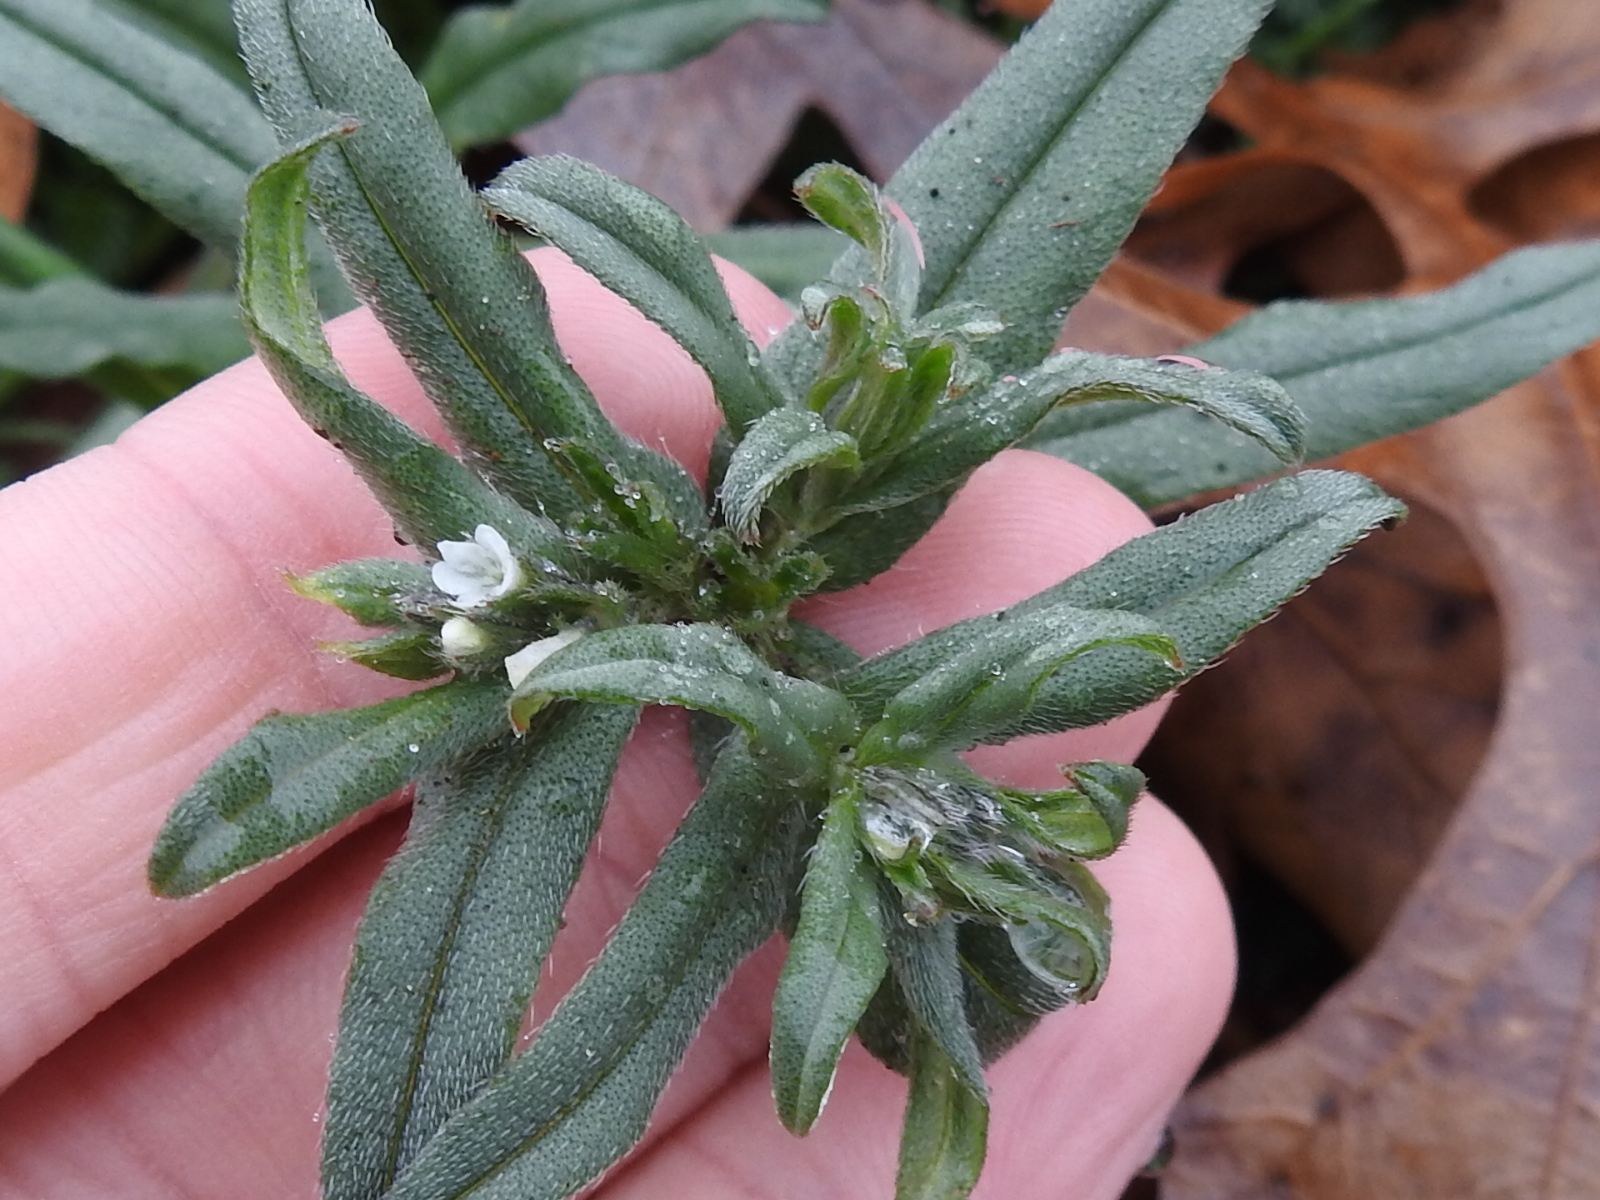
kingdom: Plantae
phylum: Tracheophyta
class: Magnoliopsida
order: Boraginales
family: Boraginaceae
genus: Buglossoides
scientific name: Buglossoides arvensis
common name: Corn gromwell
